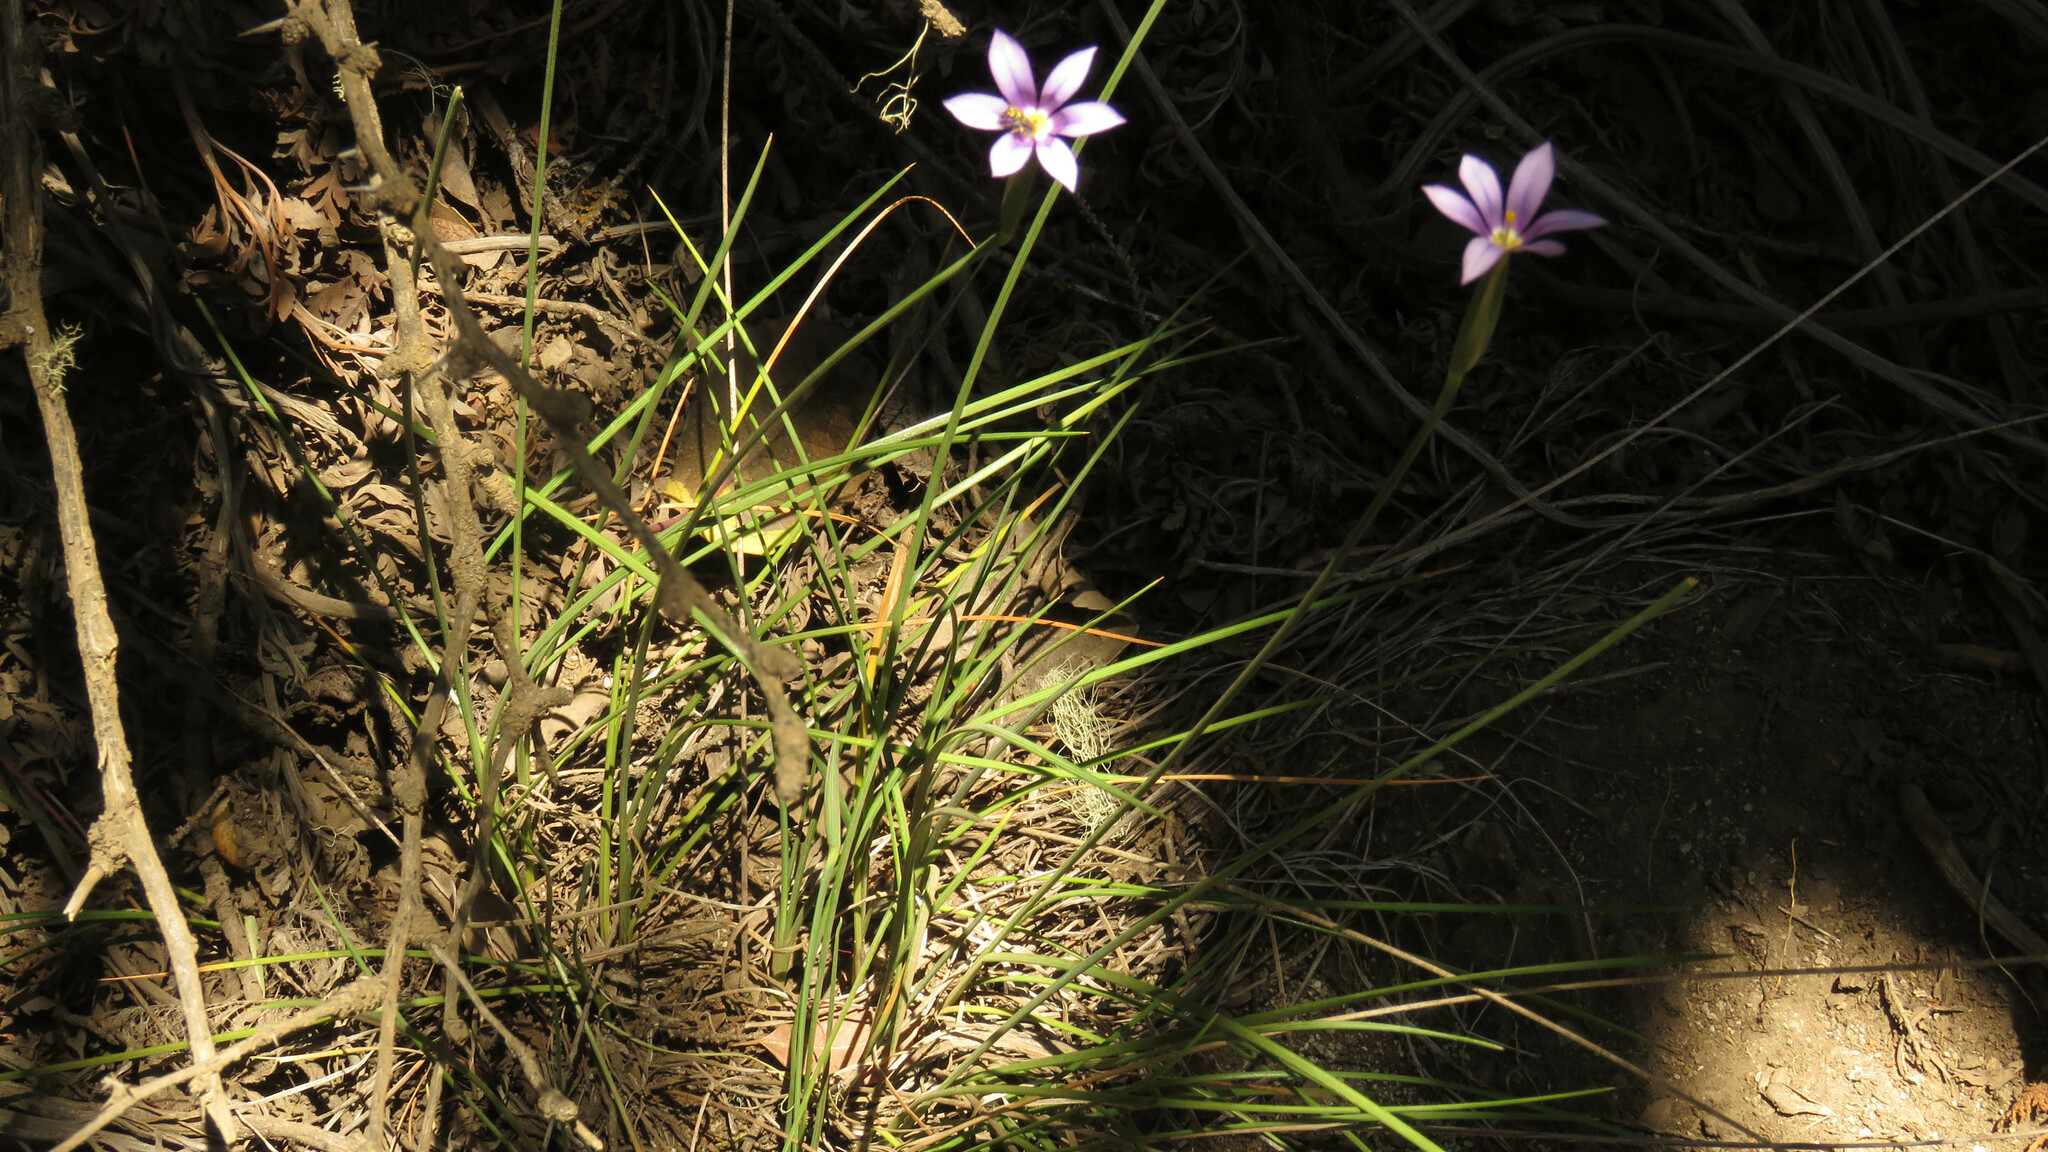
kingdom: Plantae
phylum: Tracheophyta
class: Liliopsida
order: Asparagales
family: Iridaceae
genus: Solenomelus
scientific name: Solenomelus segethi
